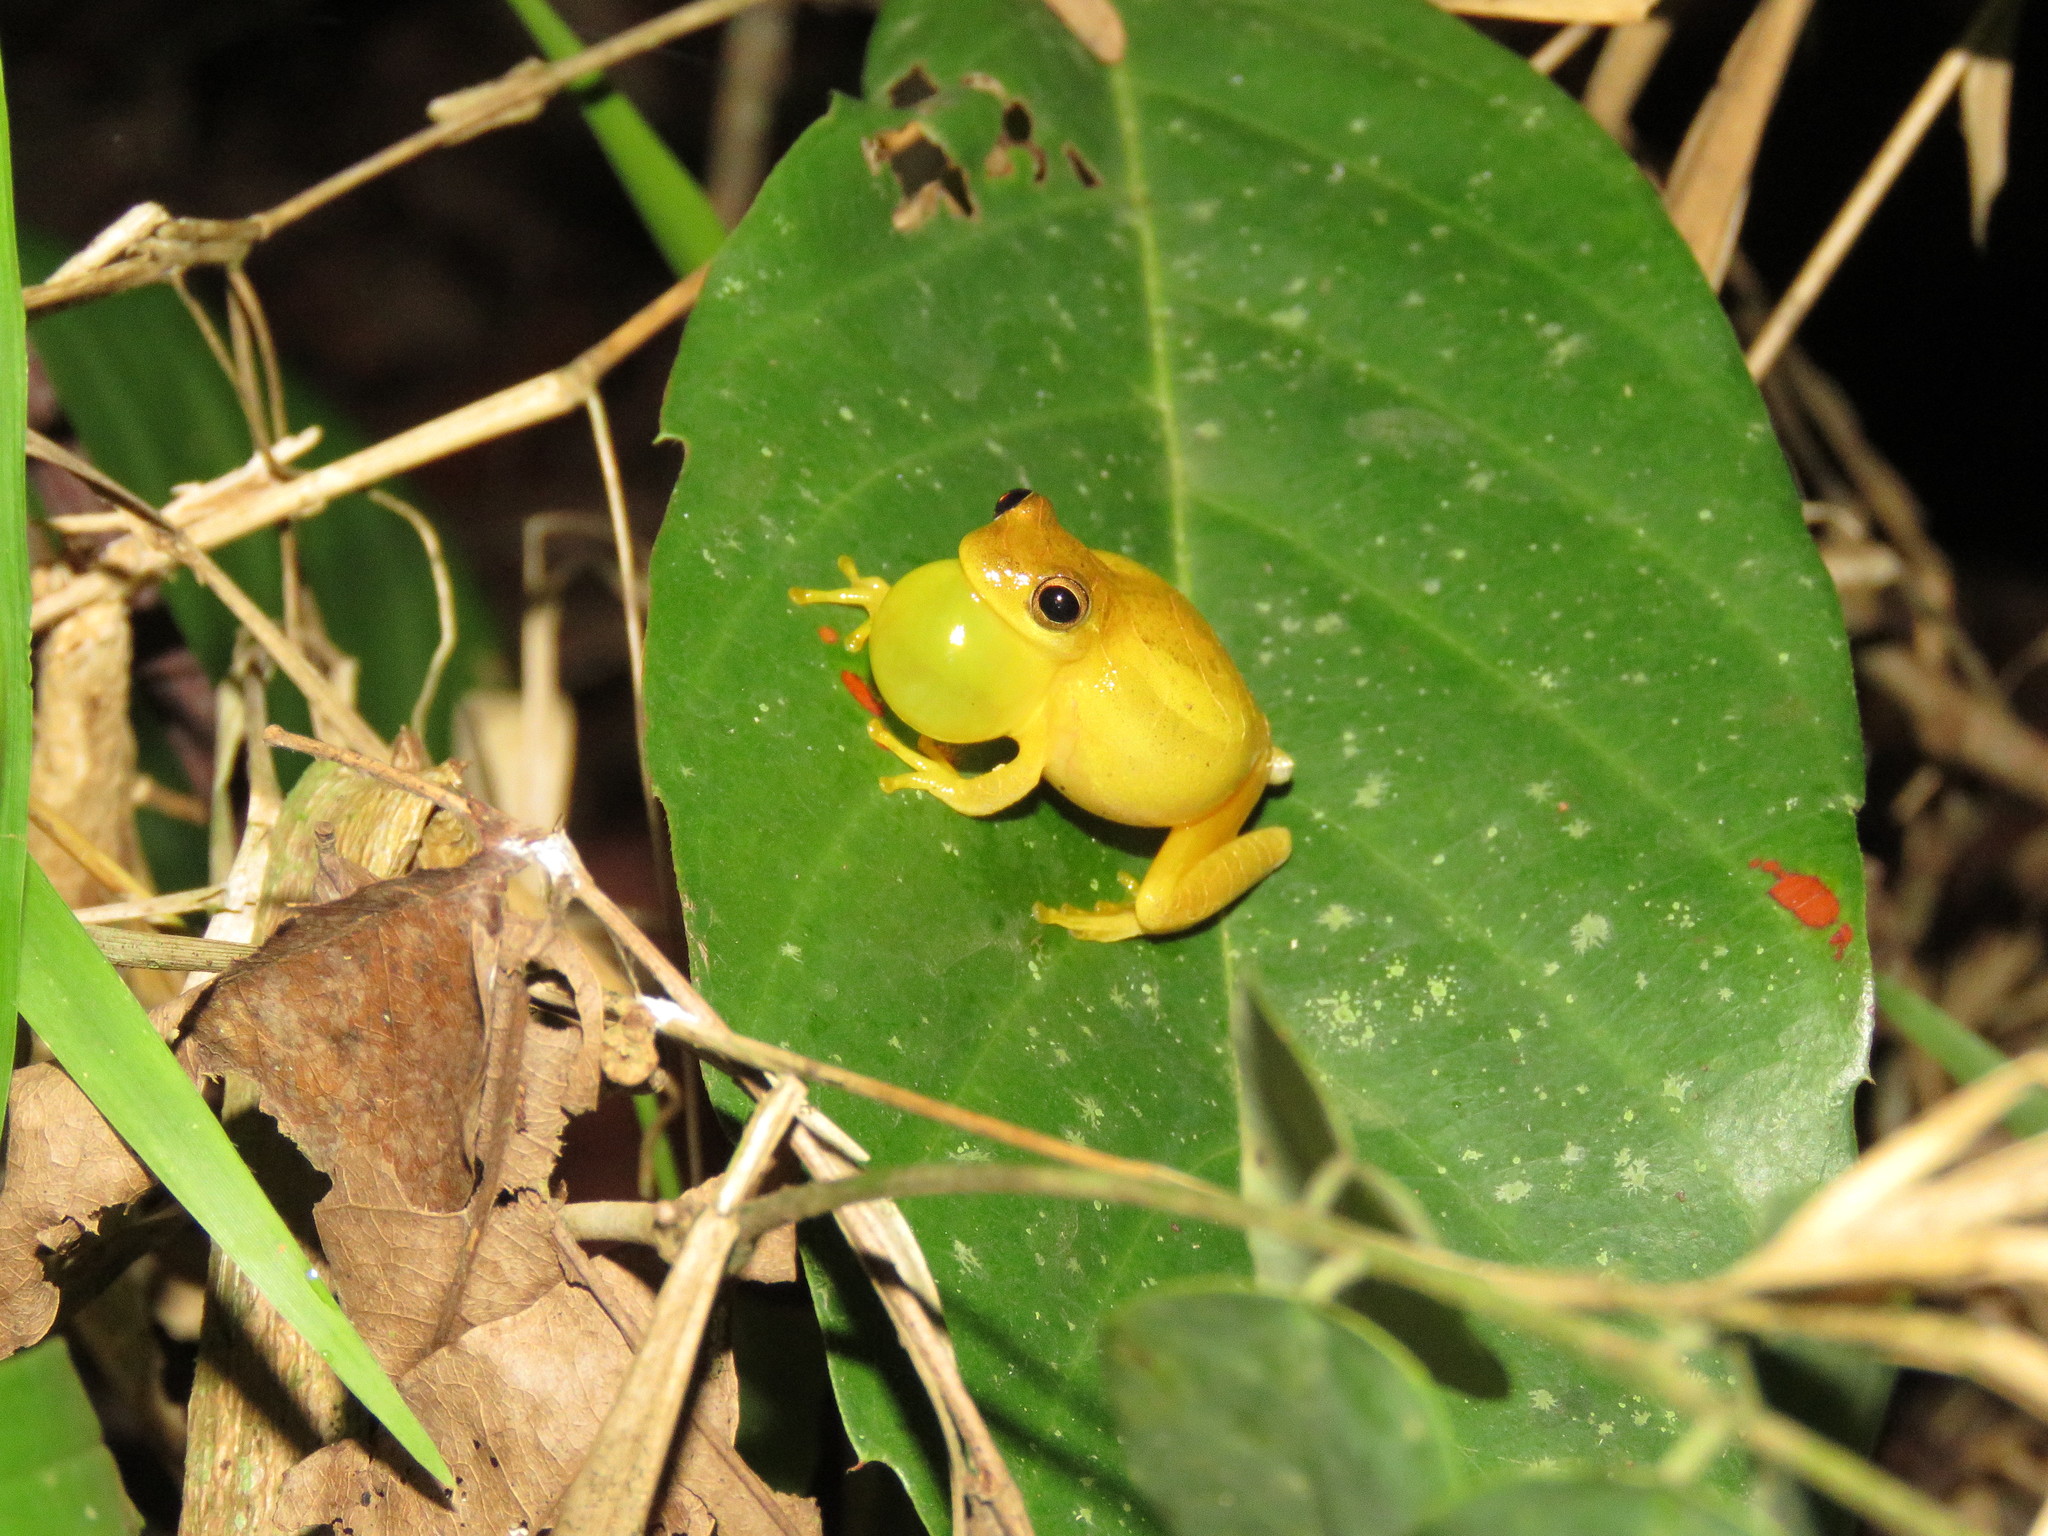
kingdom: Animalia
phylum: Chordata
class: Amphibia
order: Anura
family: Hylidae
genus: Dendropsophus
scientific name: Dendropsophus leali
